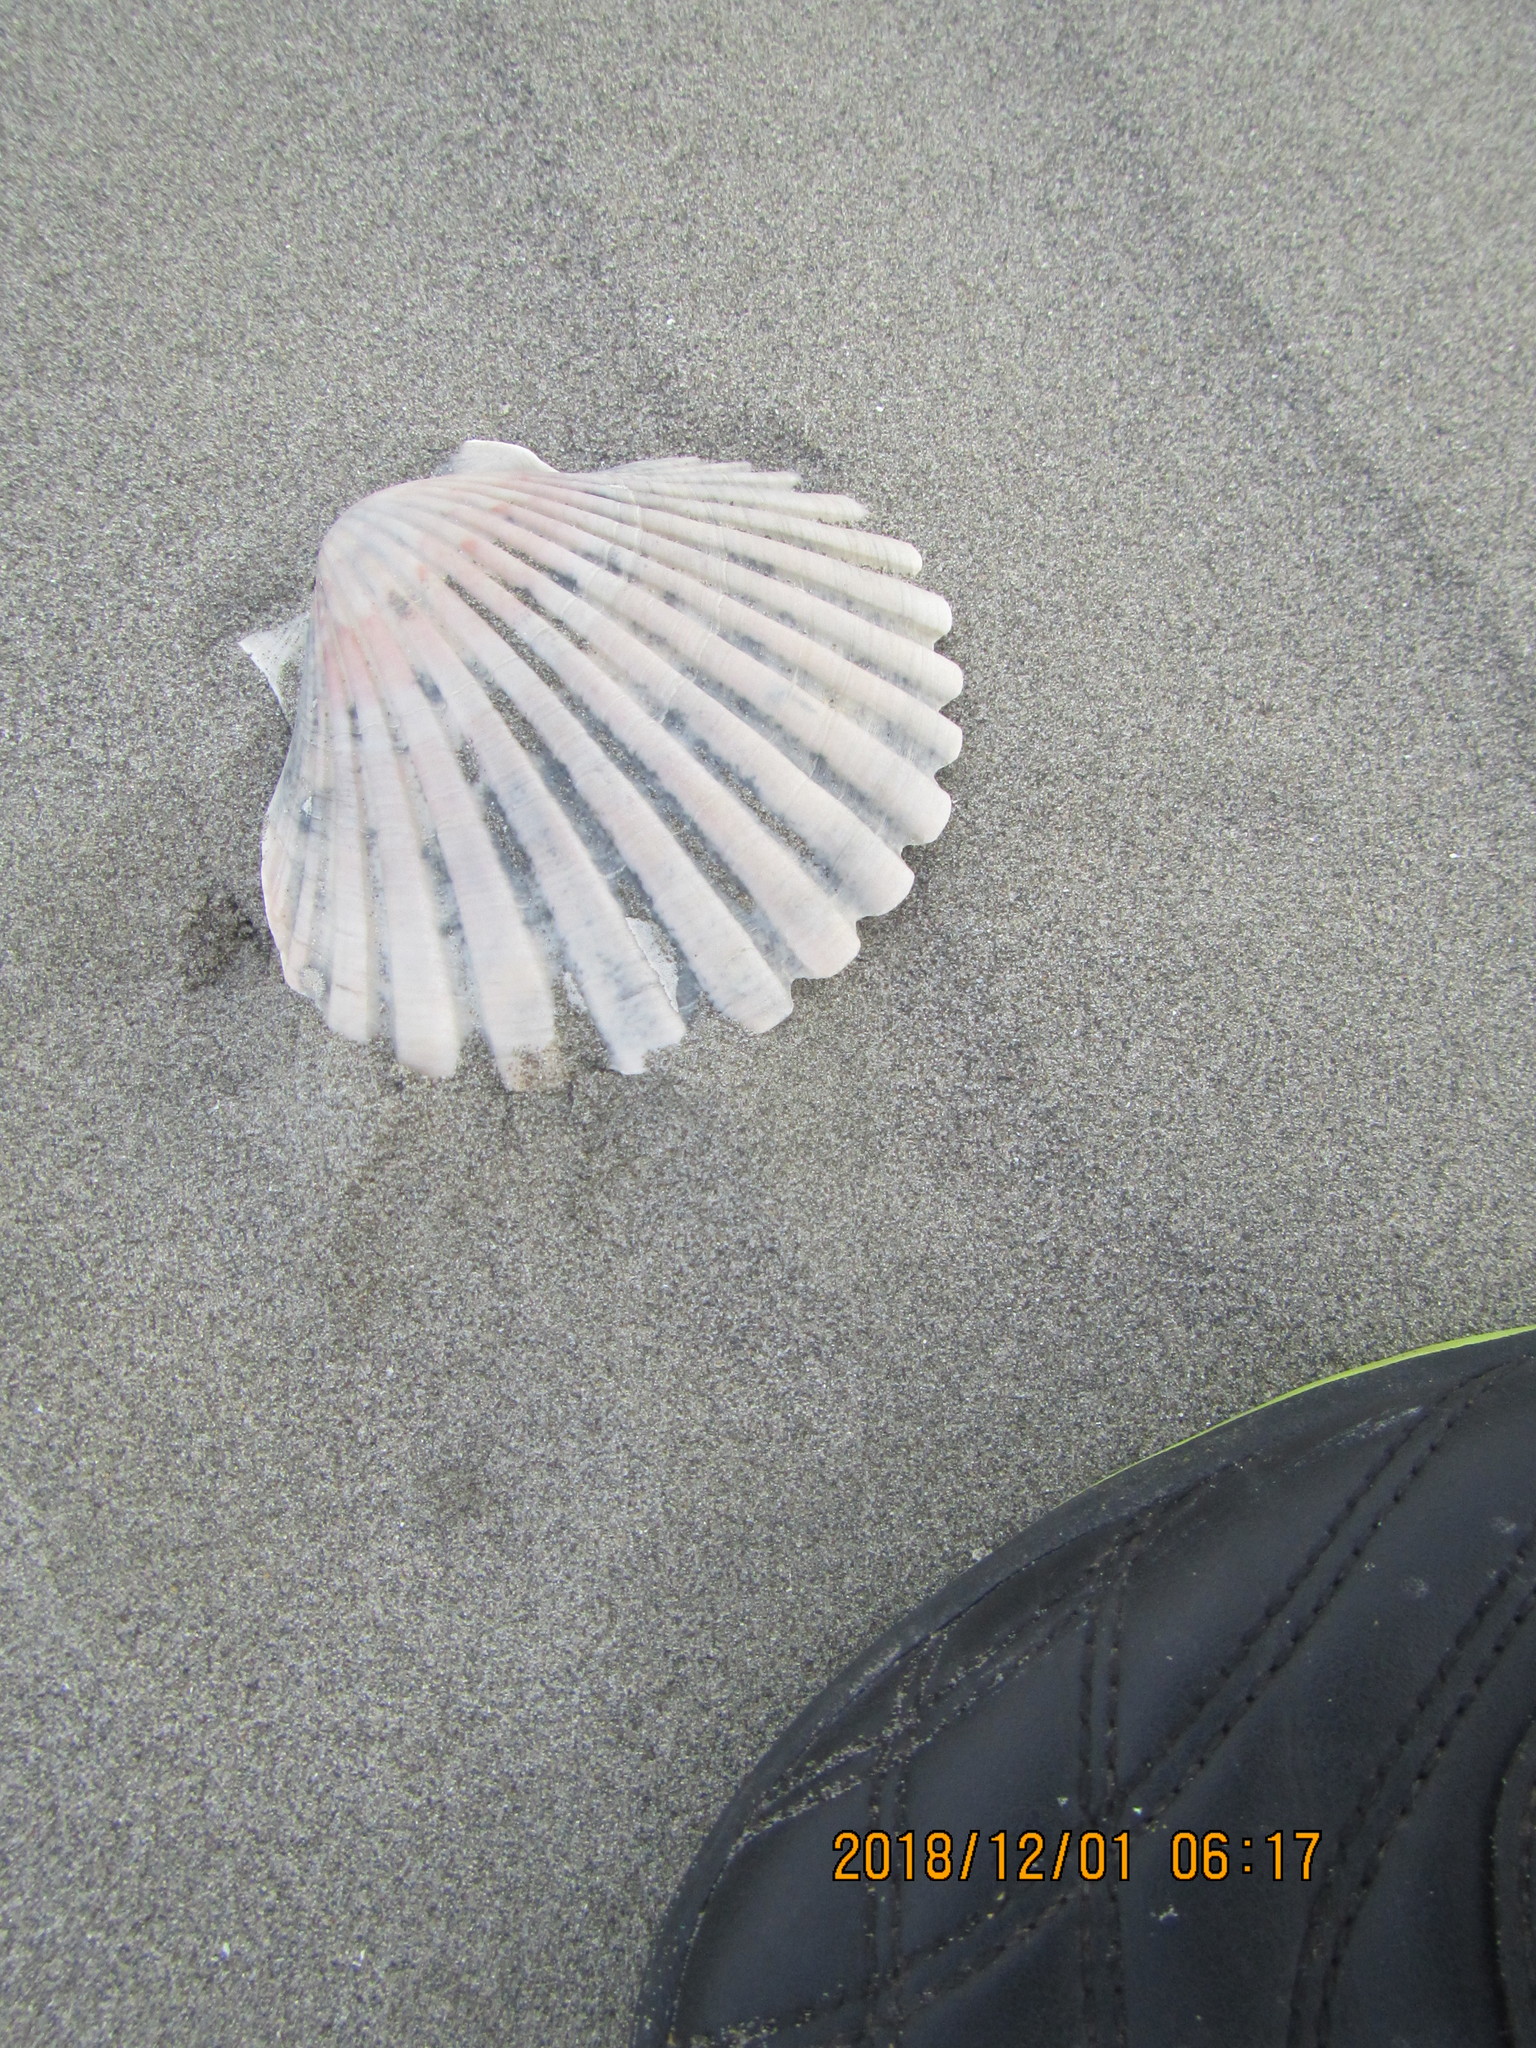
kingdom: Animalia
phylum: Mollusca
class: Bivalvia
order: Pectinida
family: Pectinidae
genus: Pecten
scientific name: Pecten novaezelandiae
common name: New zealand scallop
